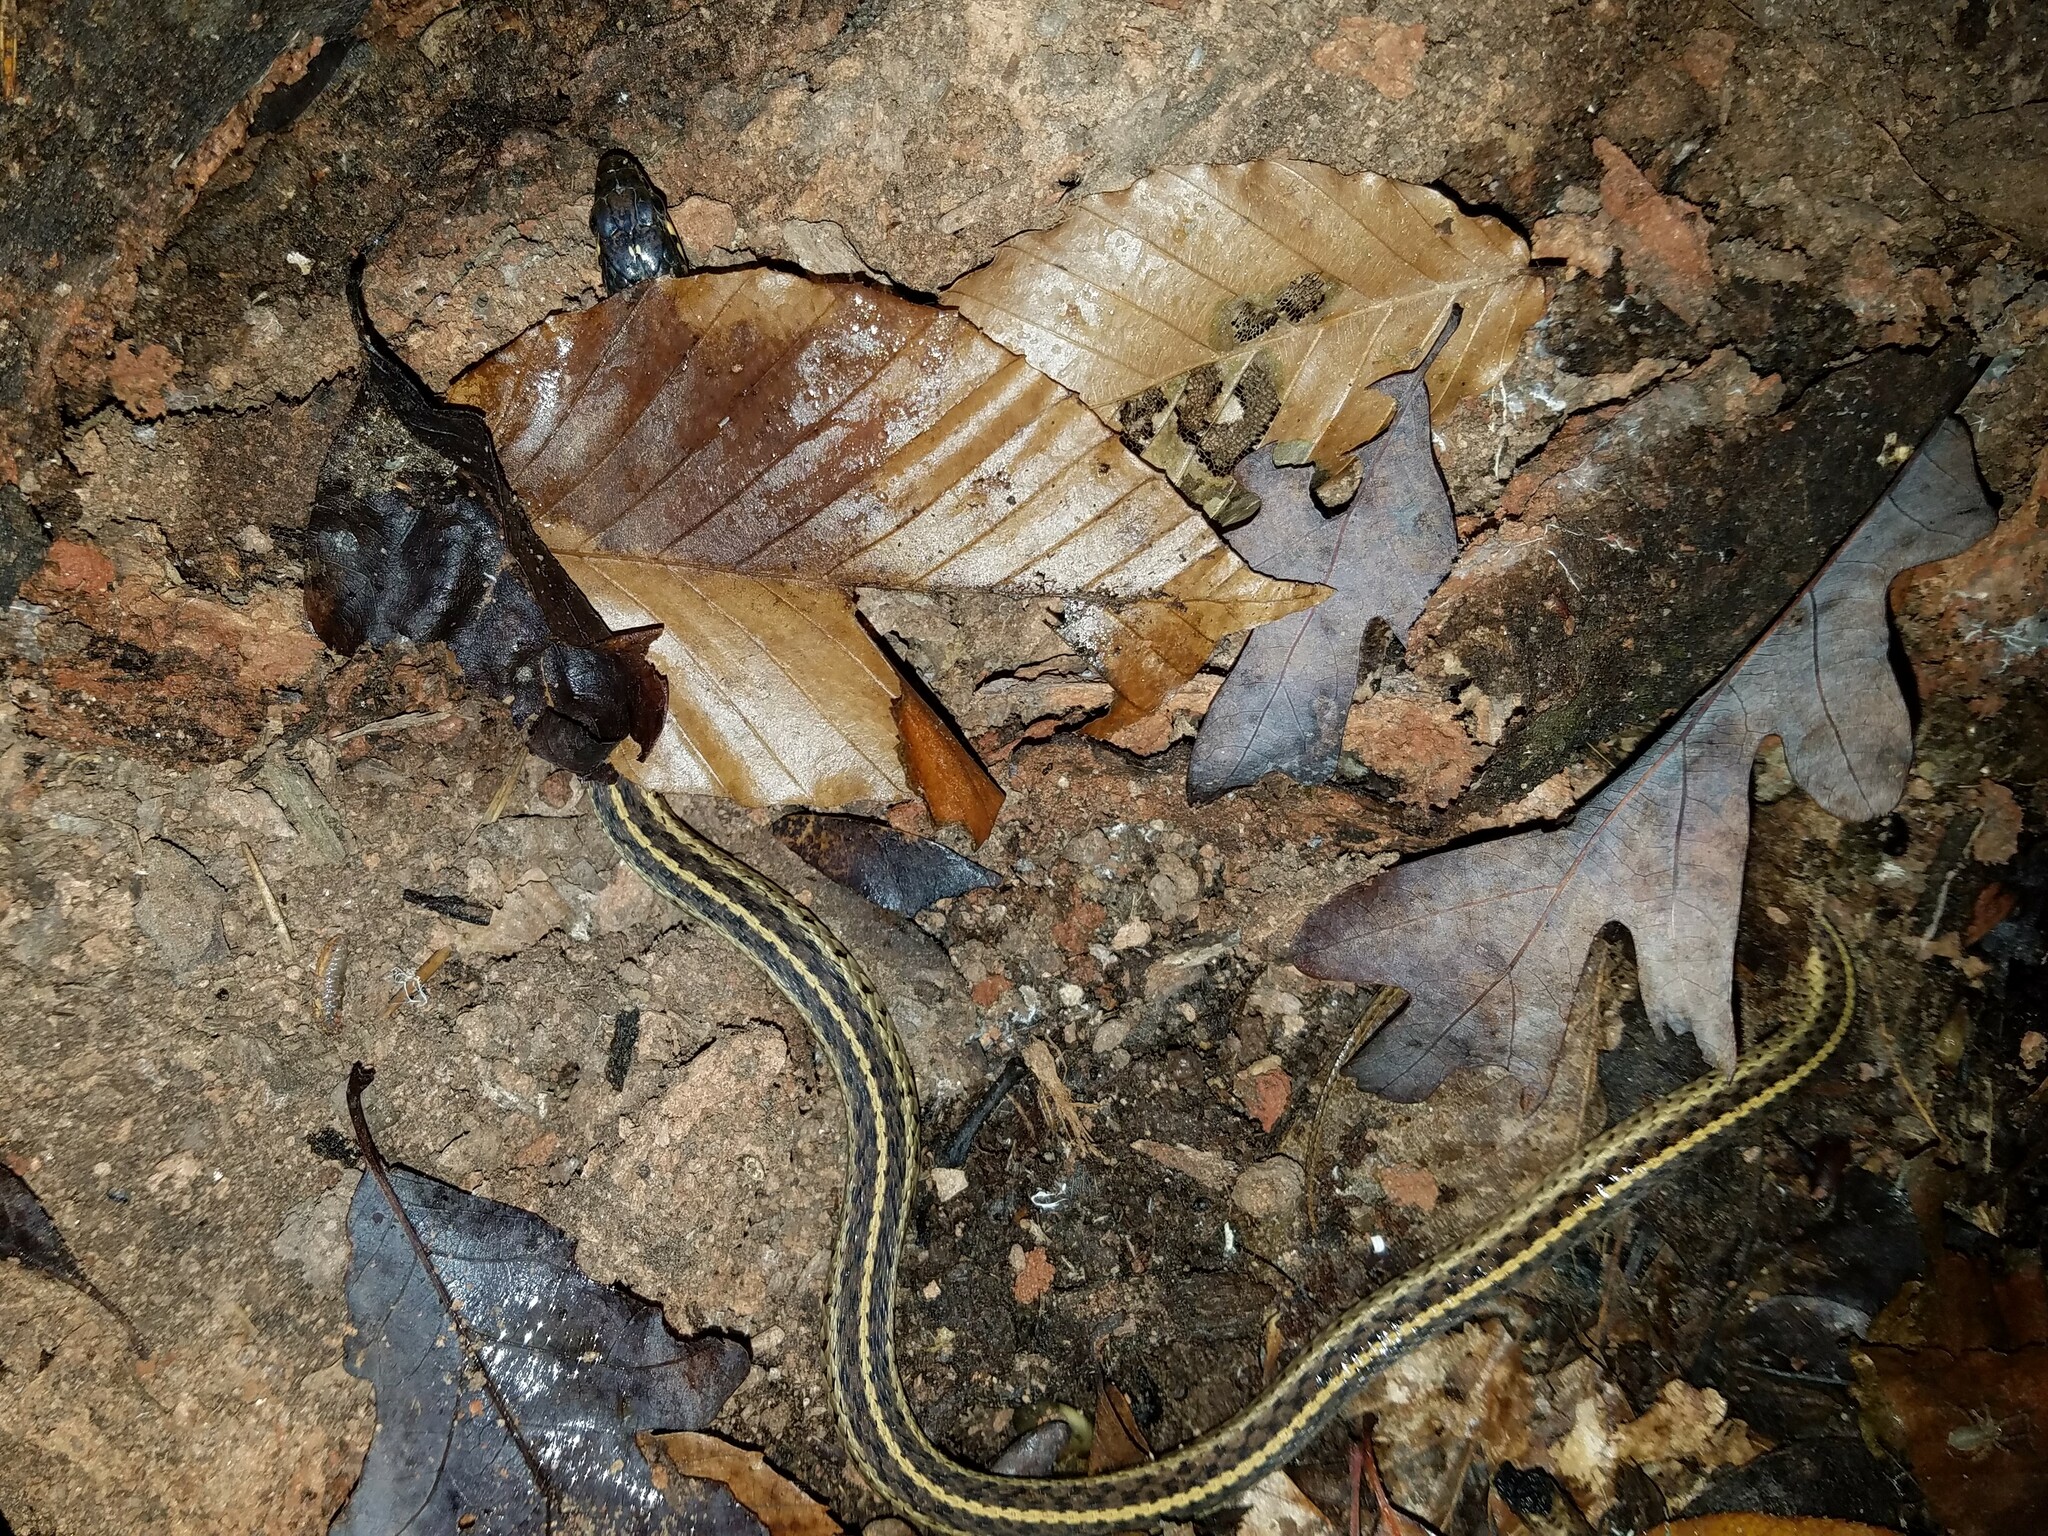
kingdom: Animalia
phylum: Chordata
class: Squamata
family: Colubridae
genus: Thamnophis
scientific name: Thamnophis sirtalis
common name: Common garter snake
